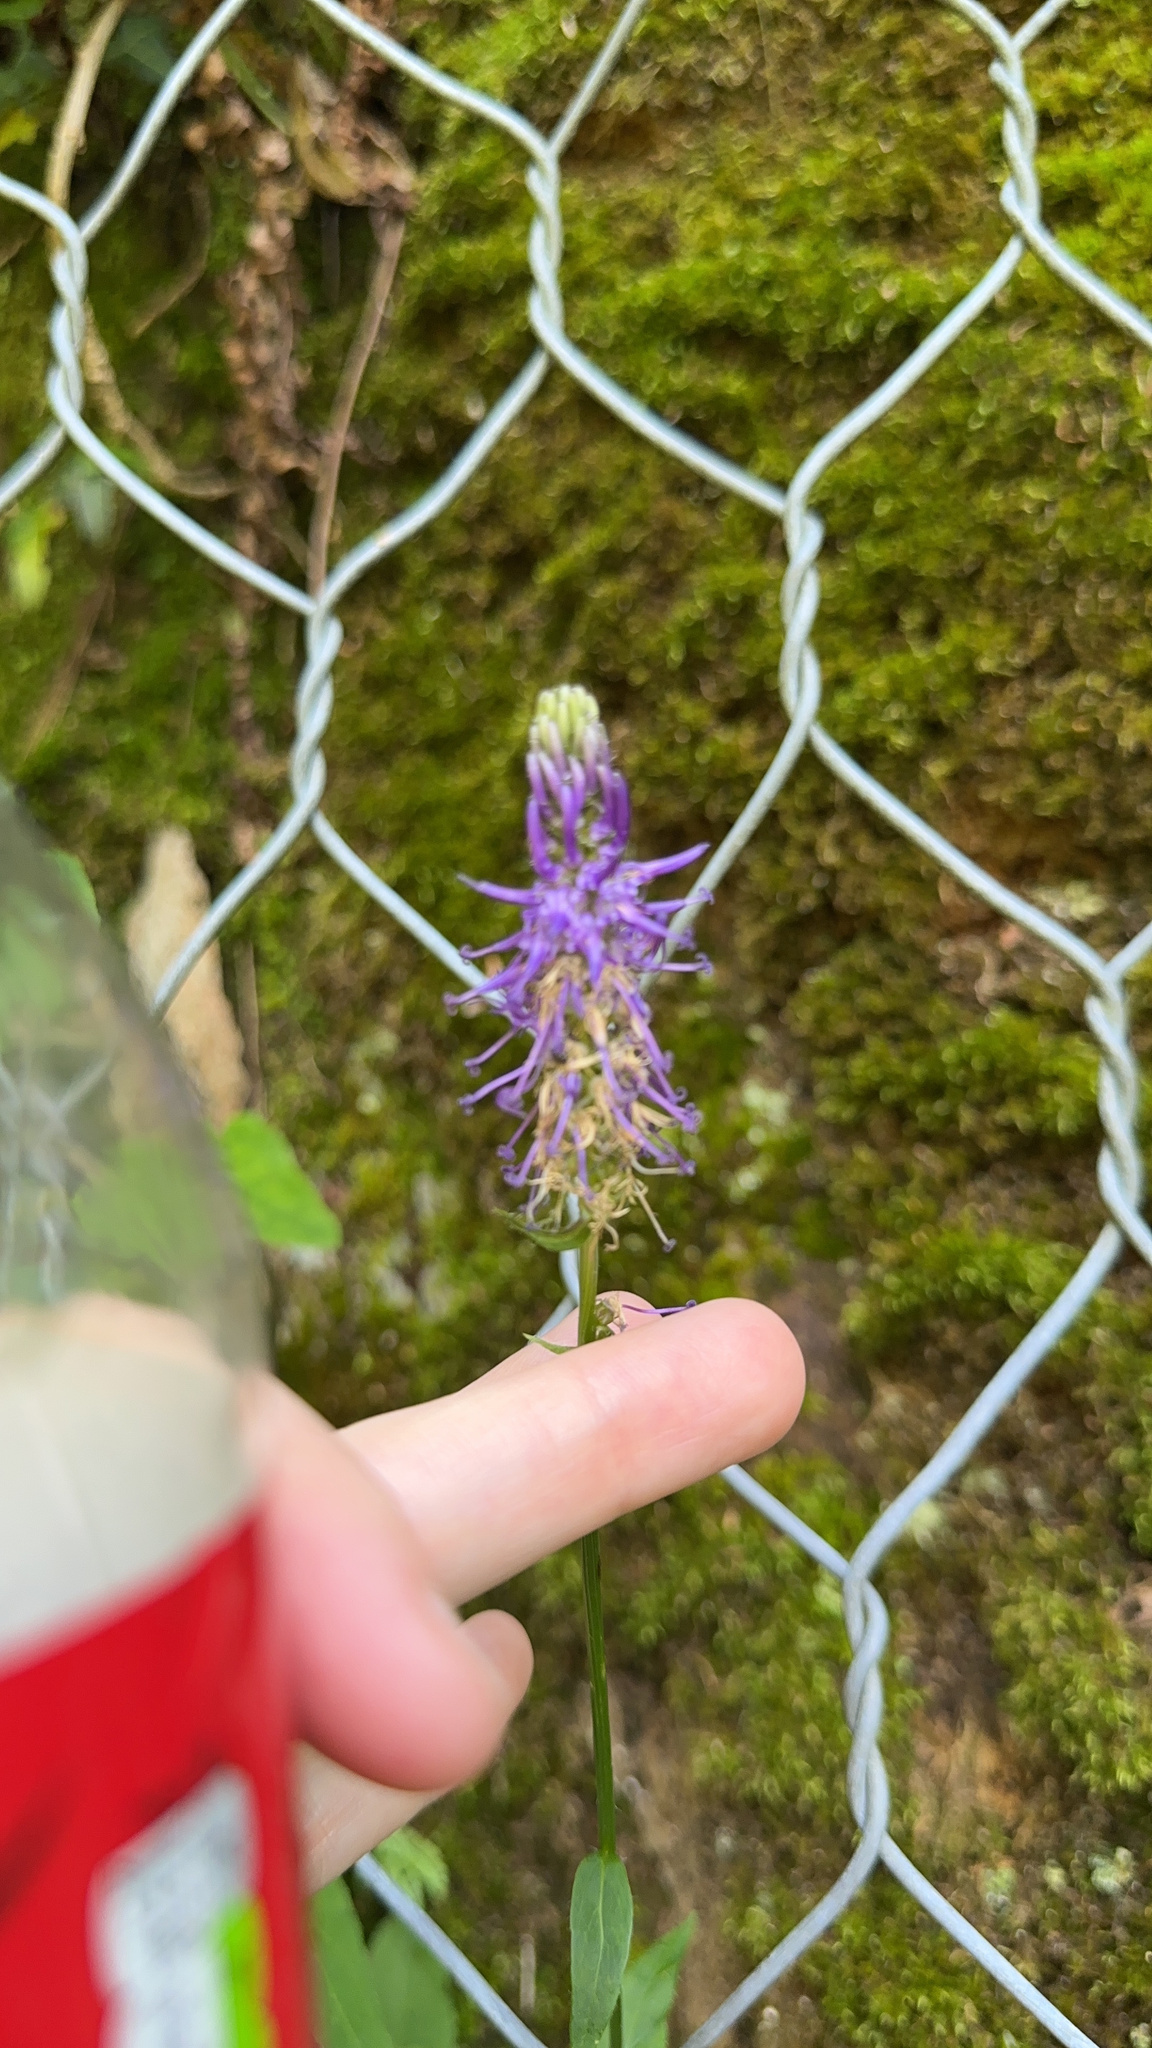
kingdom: Plantae
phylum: Tracheophyta
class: Magnoliopsida
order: Asterales
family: Campanulaceae
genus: Phyteuma
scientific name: Phyteuma betonicifolium
